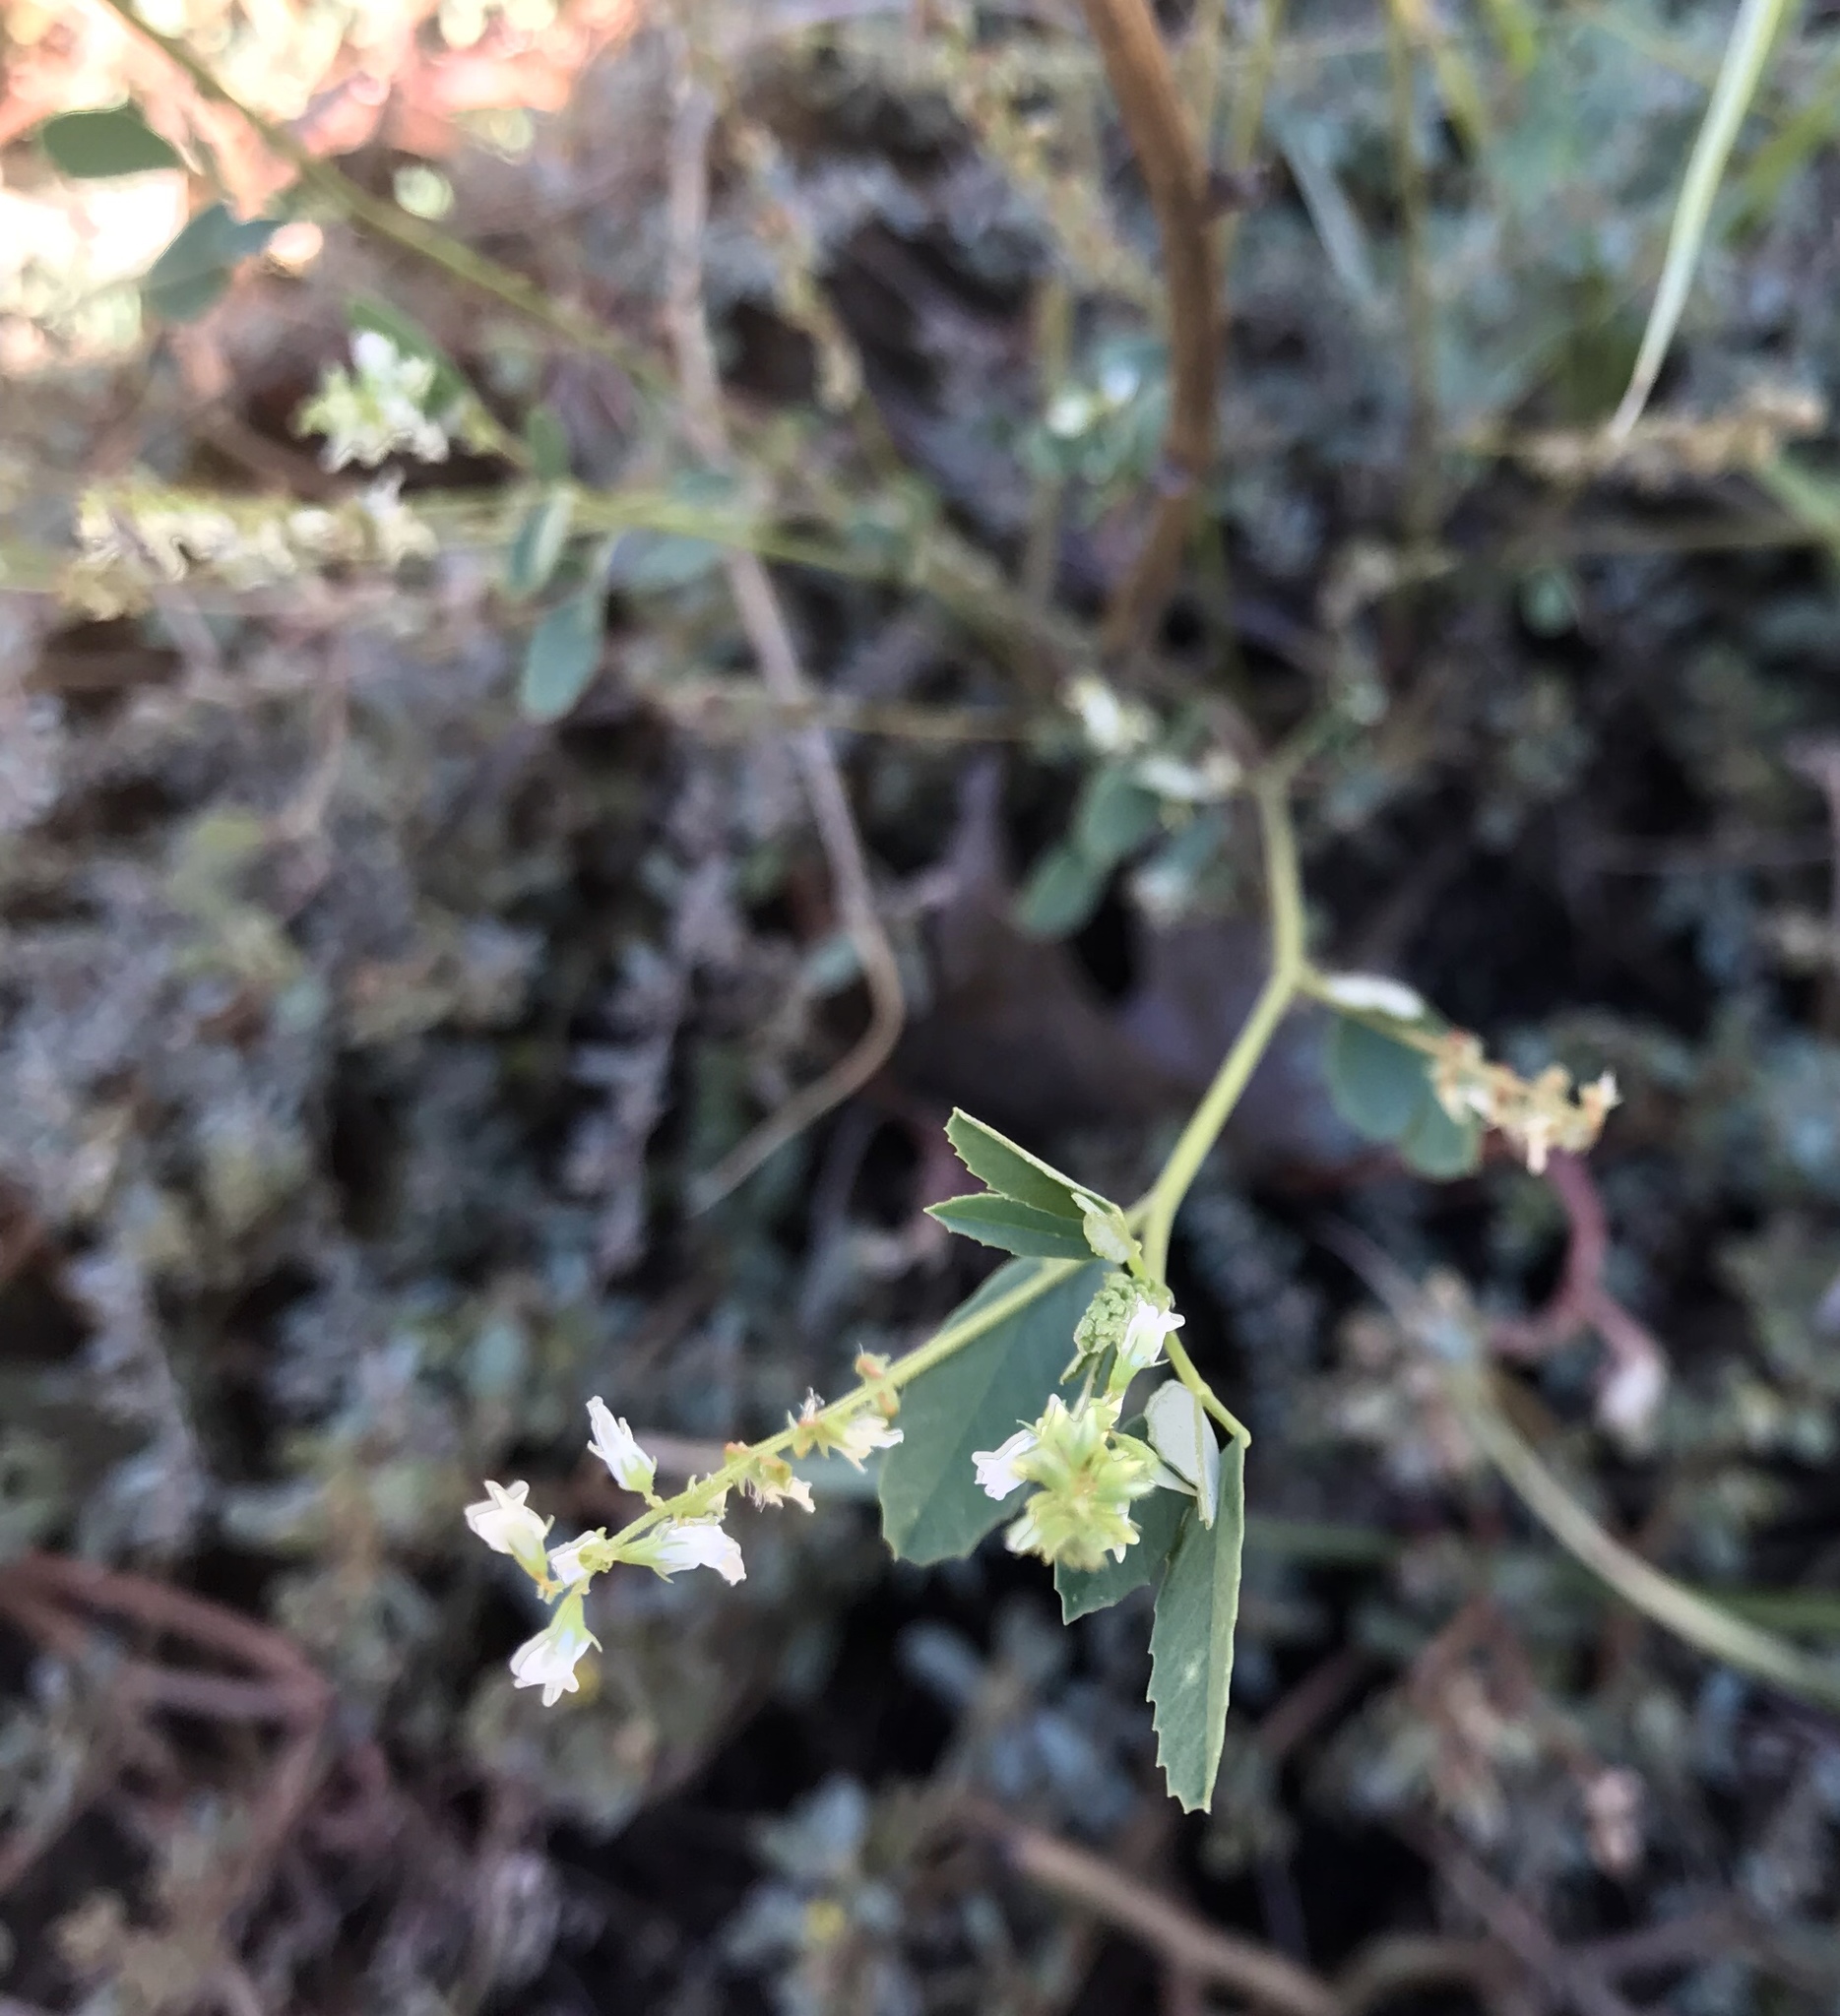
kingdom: Plantae
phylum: Tracheophyta
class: Magnoliopsida
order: Fabales
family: Fabaceae
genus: Melilotus
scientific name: Melilotus albus
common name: White melilot
